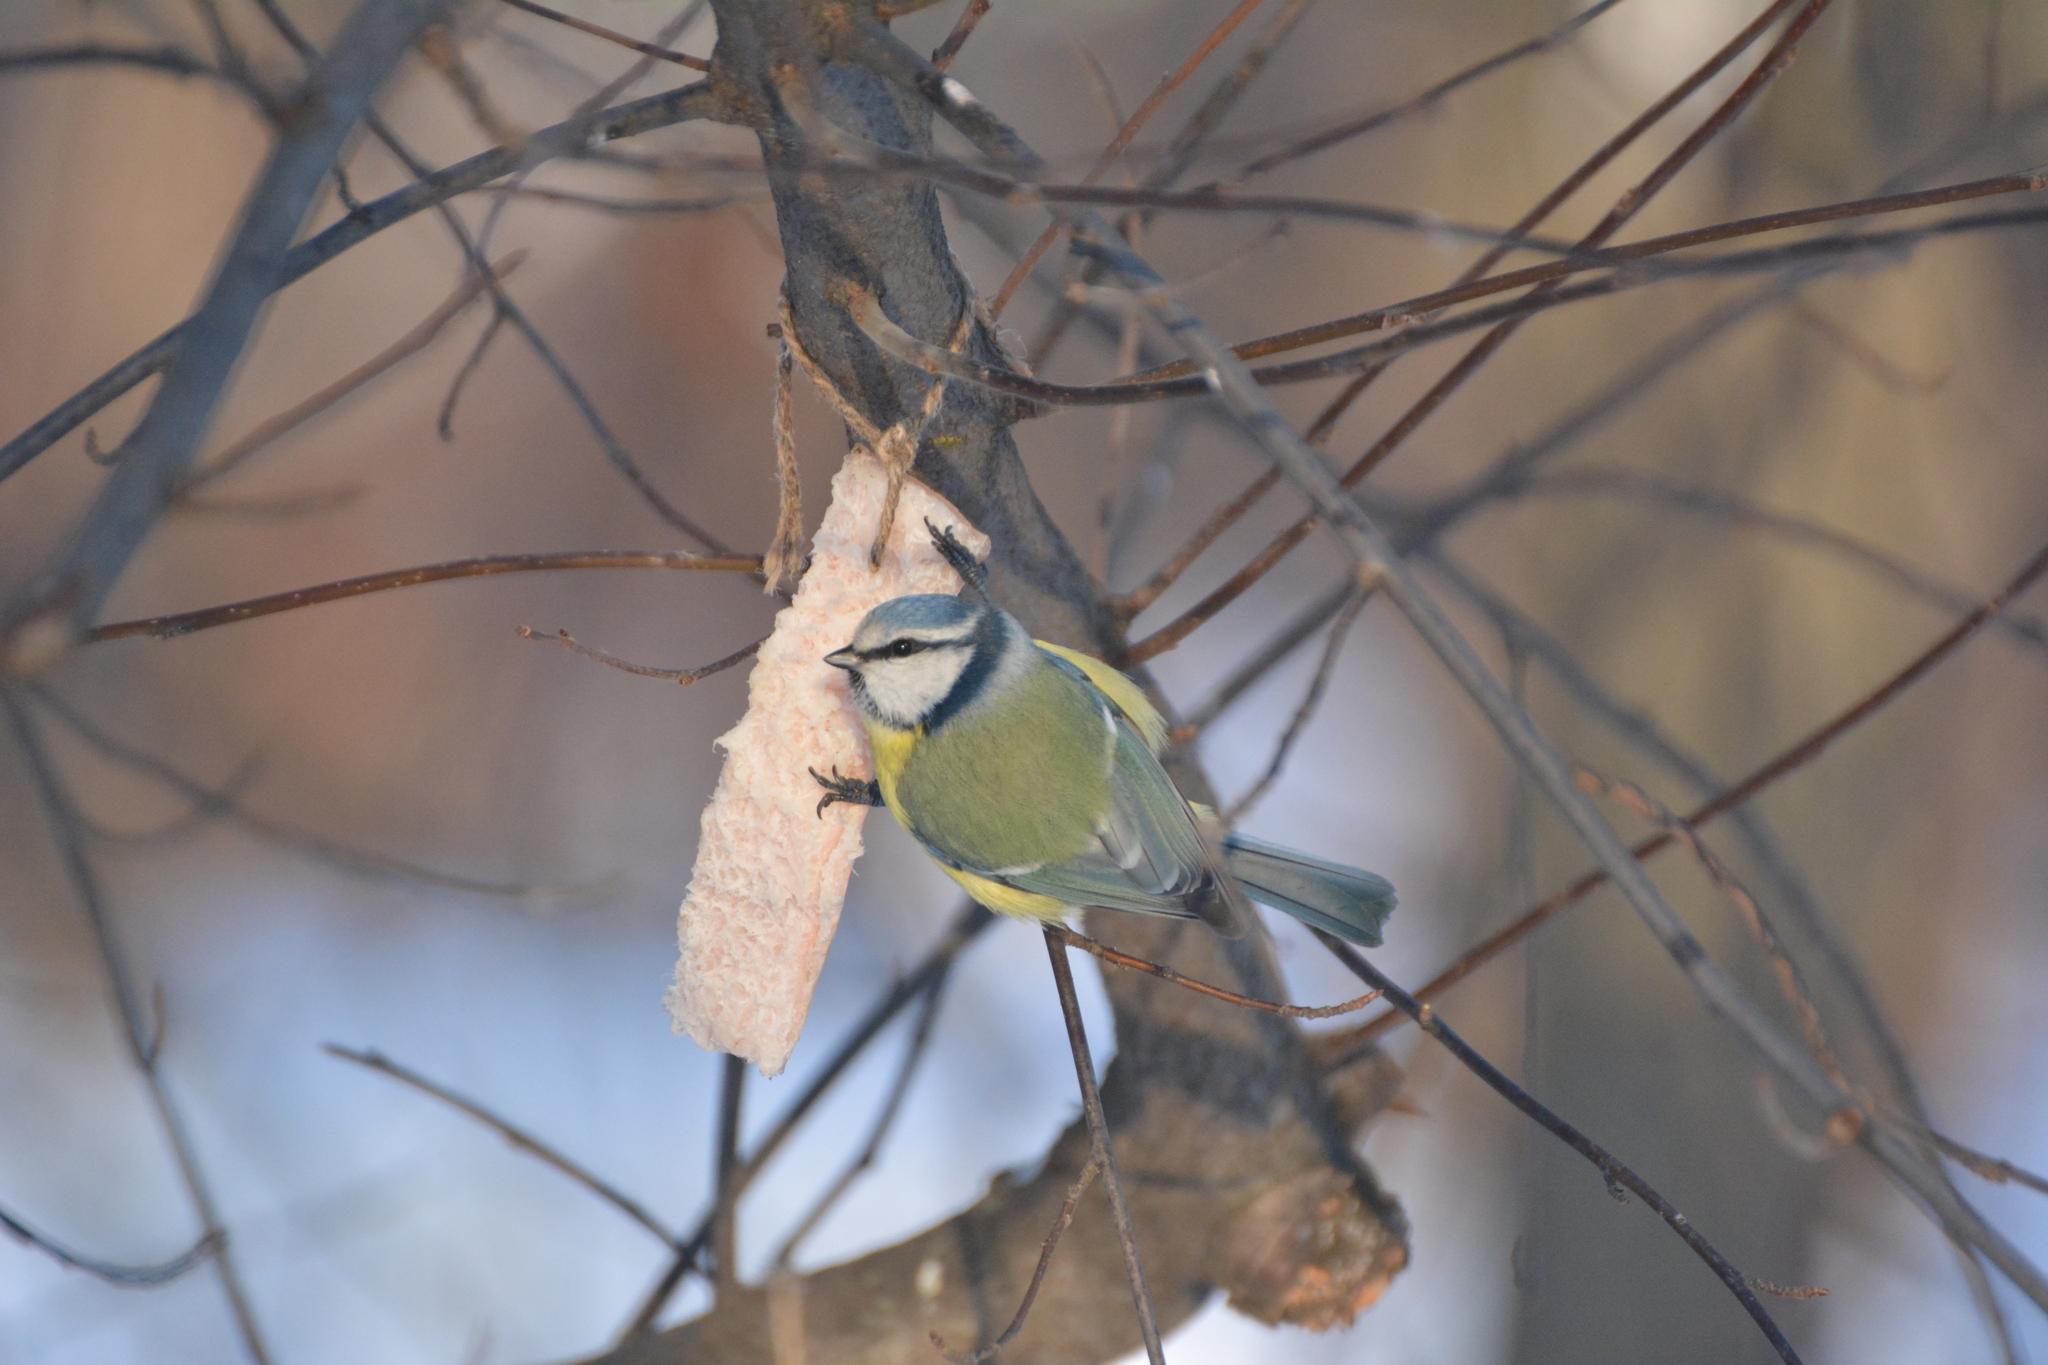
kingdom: Animalia
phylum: Chordata
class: Aves
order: Passeriformes
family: Paridae
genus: Cyanistes
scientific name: Cyanistes caeruleus
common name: Eurasian blue tit
